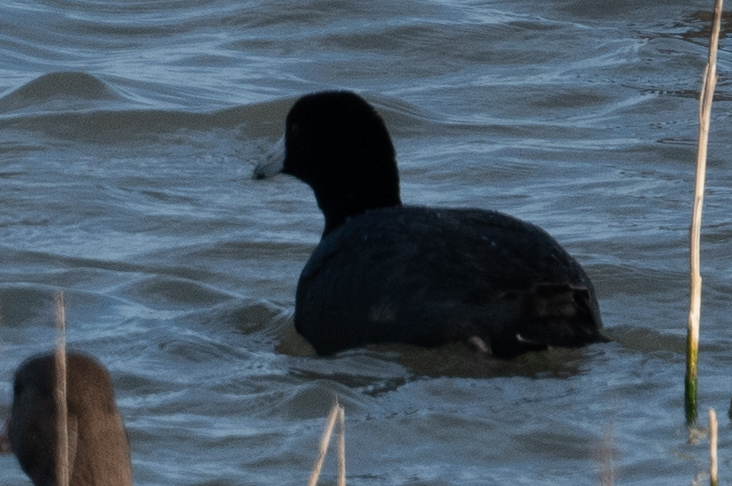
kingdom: Animalia
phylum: Chordata
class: Aves
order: Gruiformes
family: Rallidae
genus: Fulica
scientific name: Fulica americana
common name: American coot
